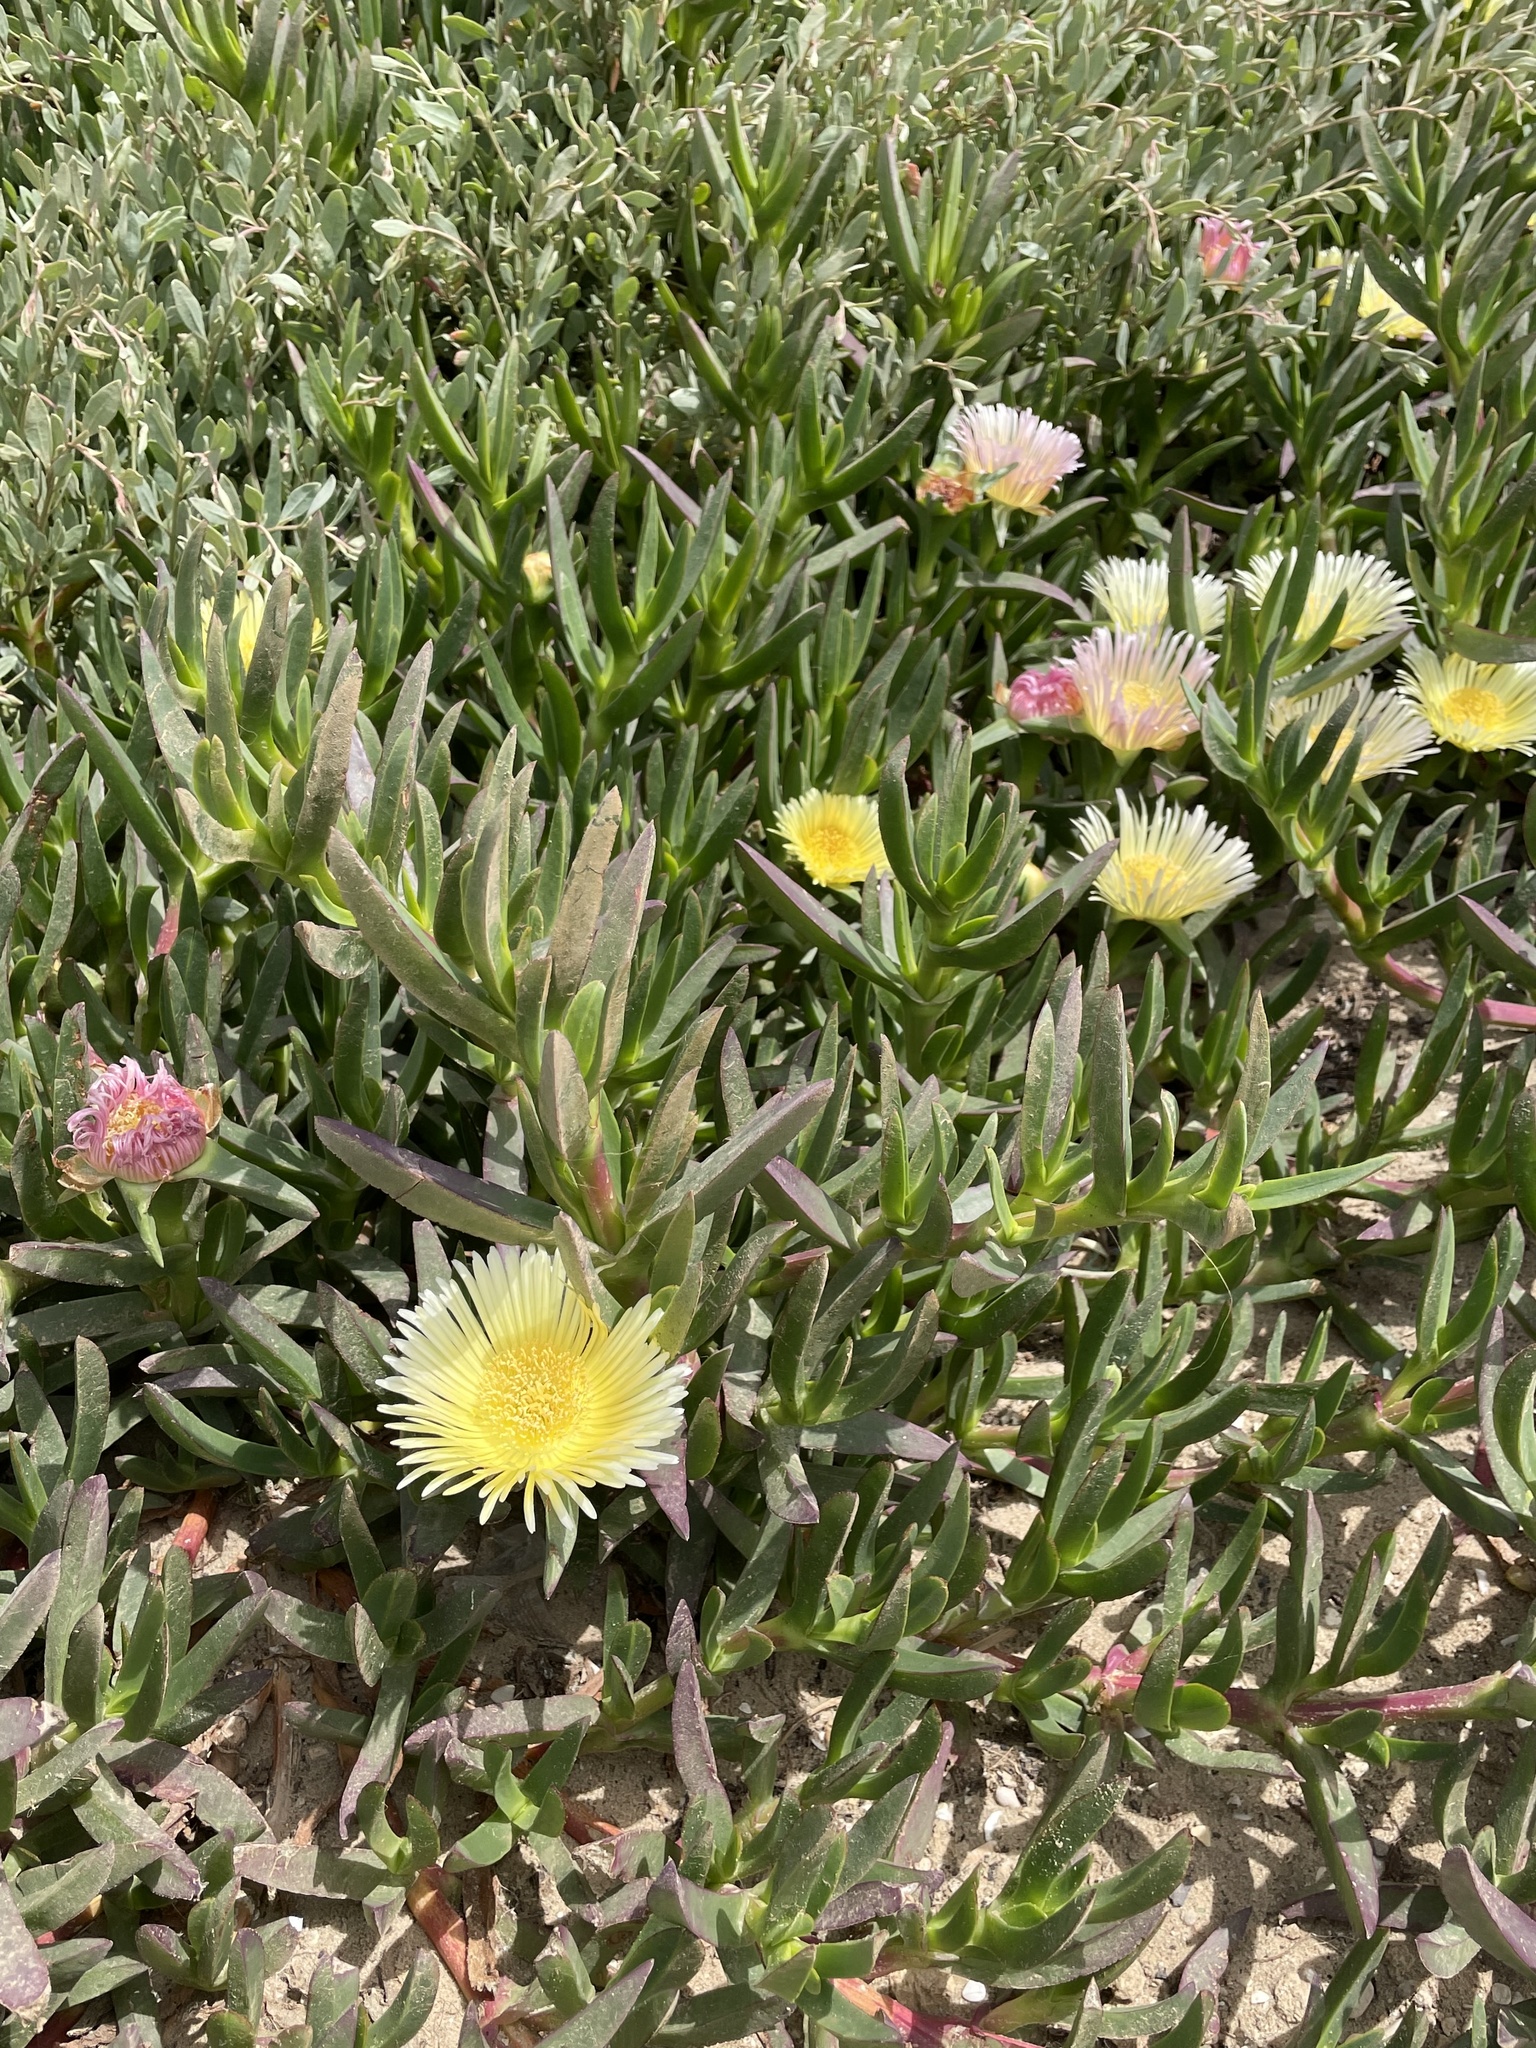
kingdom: Plantae
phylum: Tracheophyta
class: Magnoliopsida
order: Caryophyllales
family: Aizoaceae
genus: Carpobrotus
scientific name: Carpobrotus edulis
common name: Hottentot-fig
